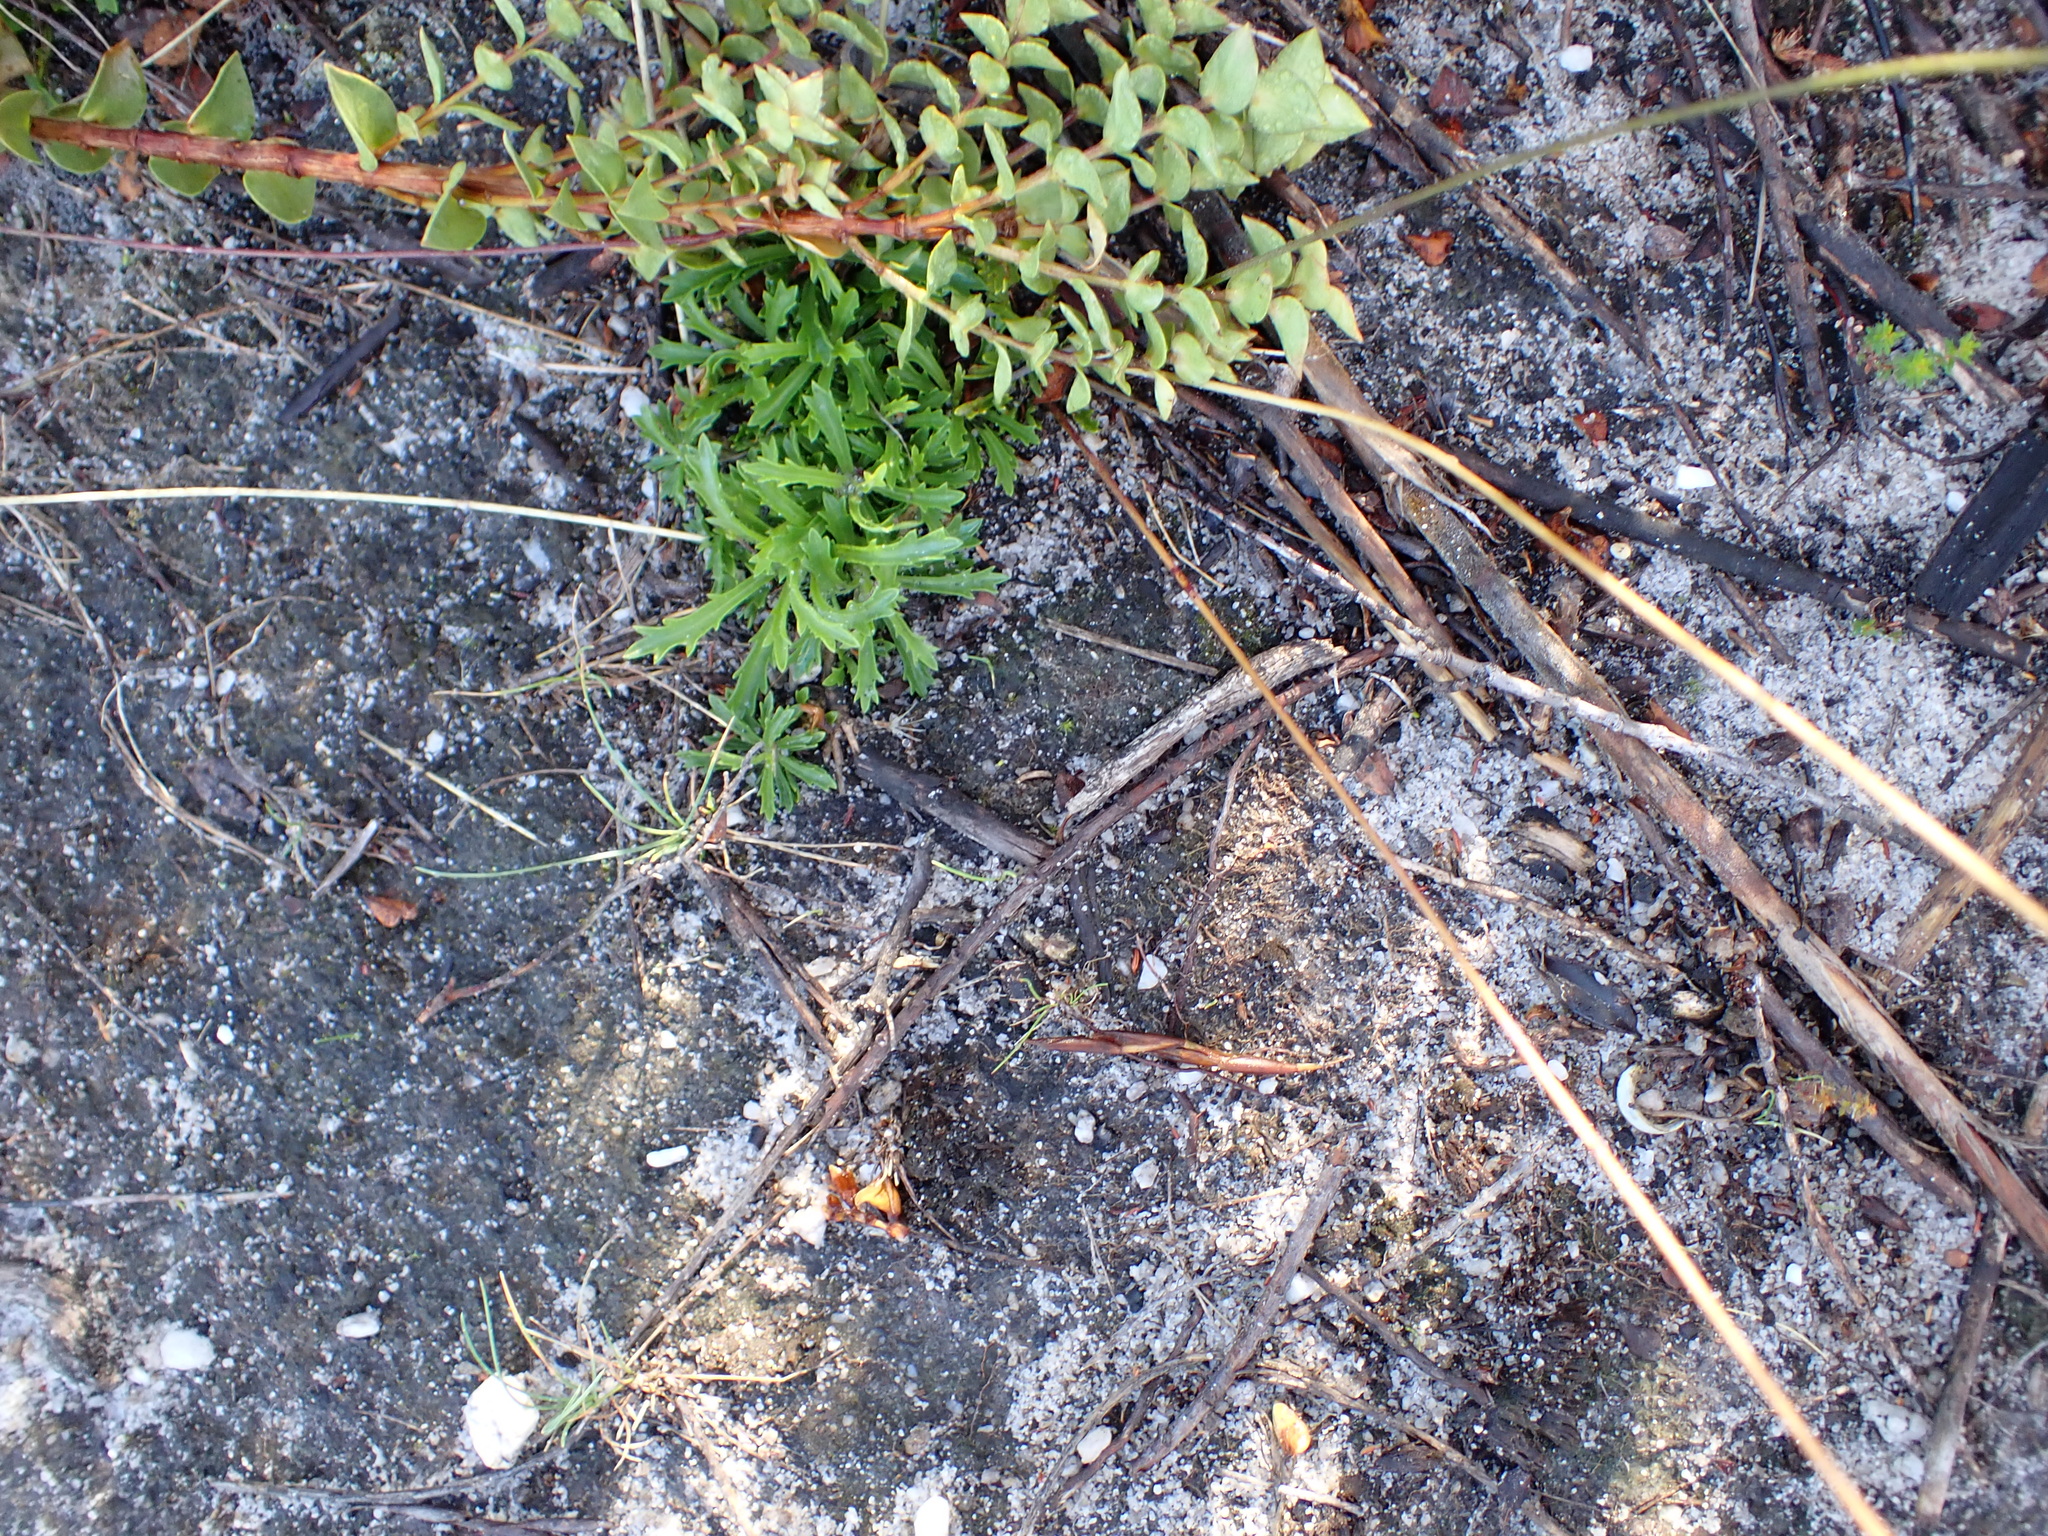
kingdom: Plantae
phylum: Tracheophyta
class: Magnoliopsida
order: Asterales
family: Campanulaceae
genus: Lobelia
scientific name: Lobelia coronopifolia
